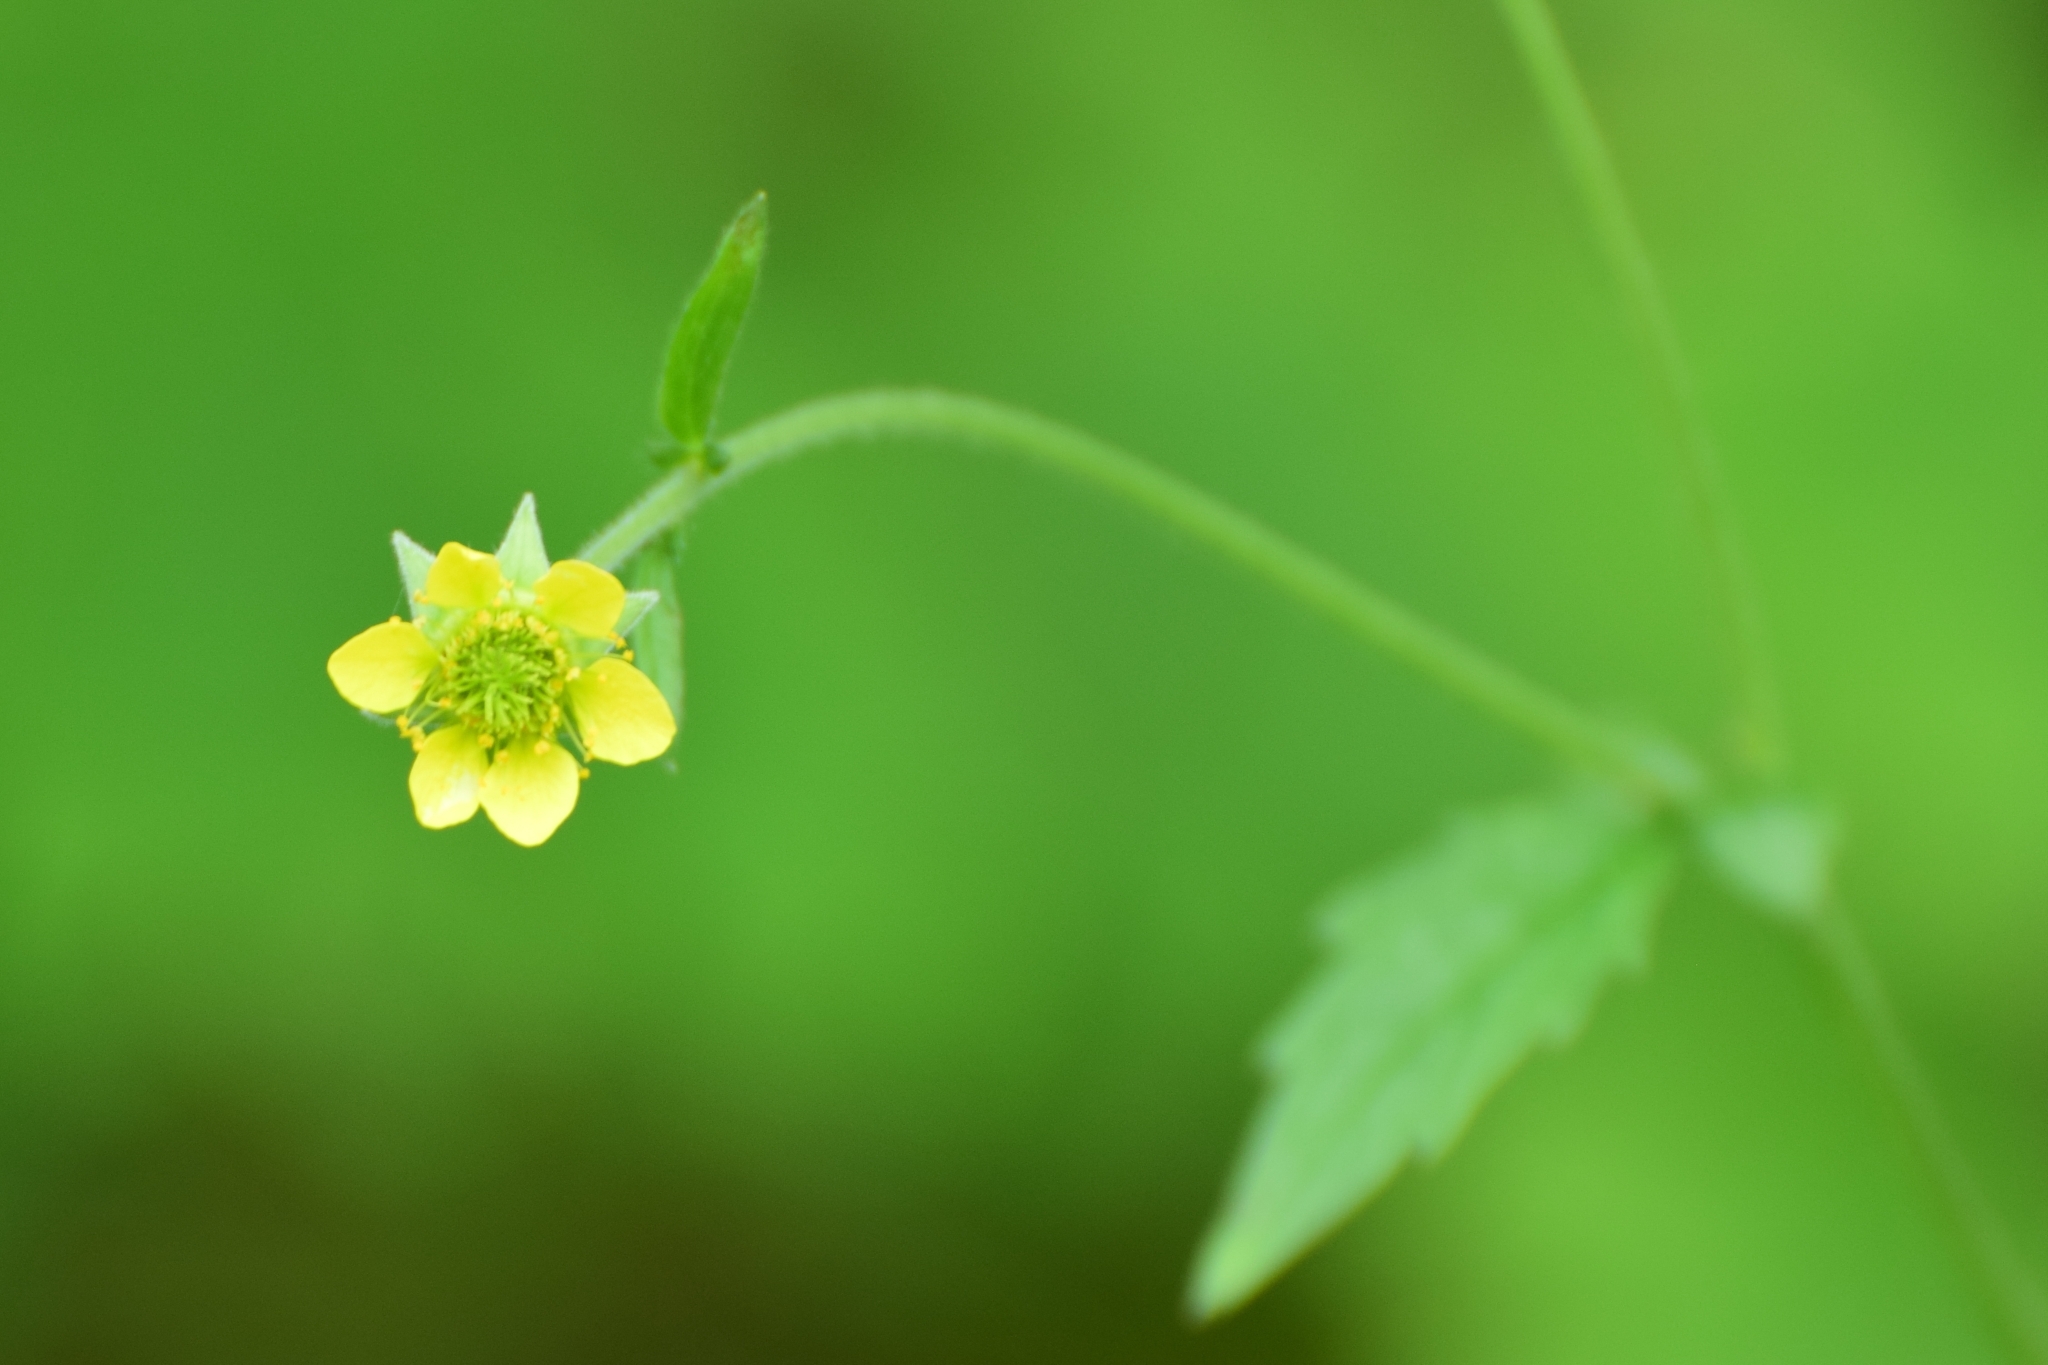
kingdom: Plantae
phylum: Tracheophyta
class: Magnoliopsida
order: Rosales
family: Rosaceae
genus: Geum
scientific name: Geum urbanum
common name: Wood avens
